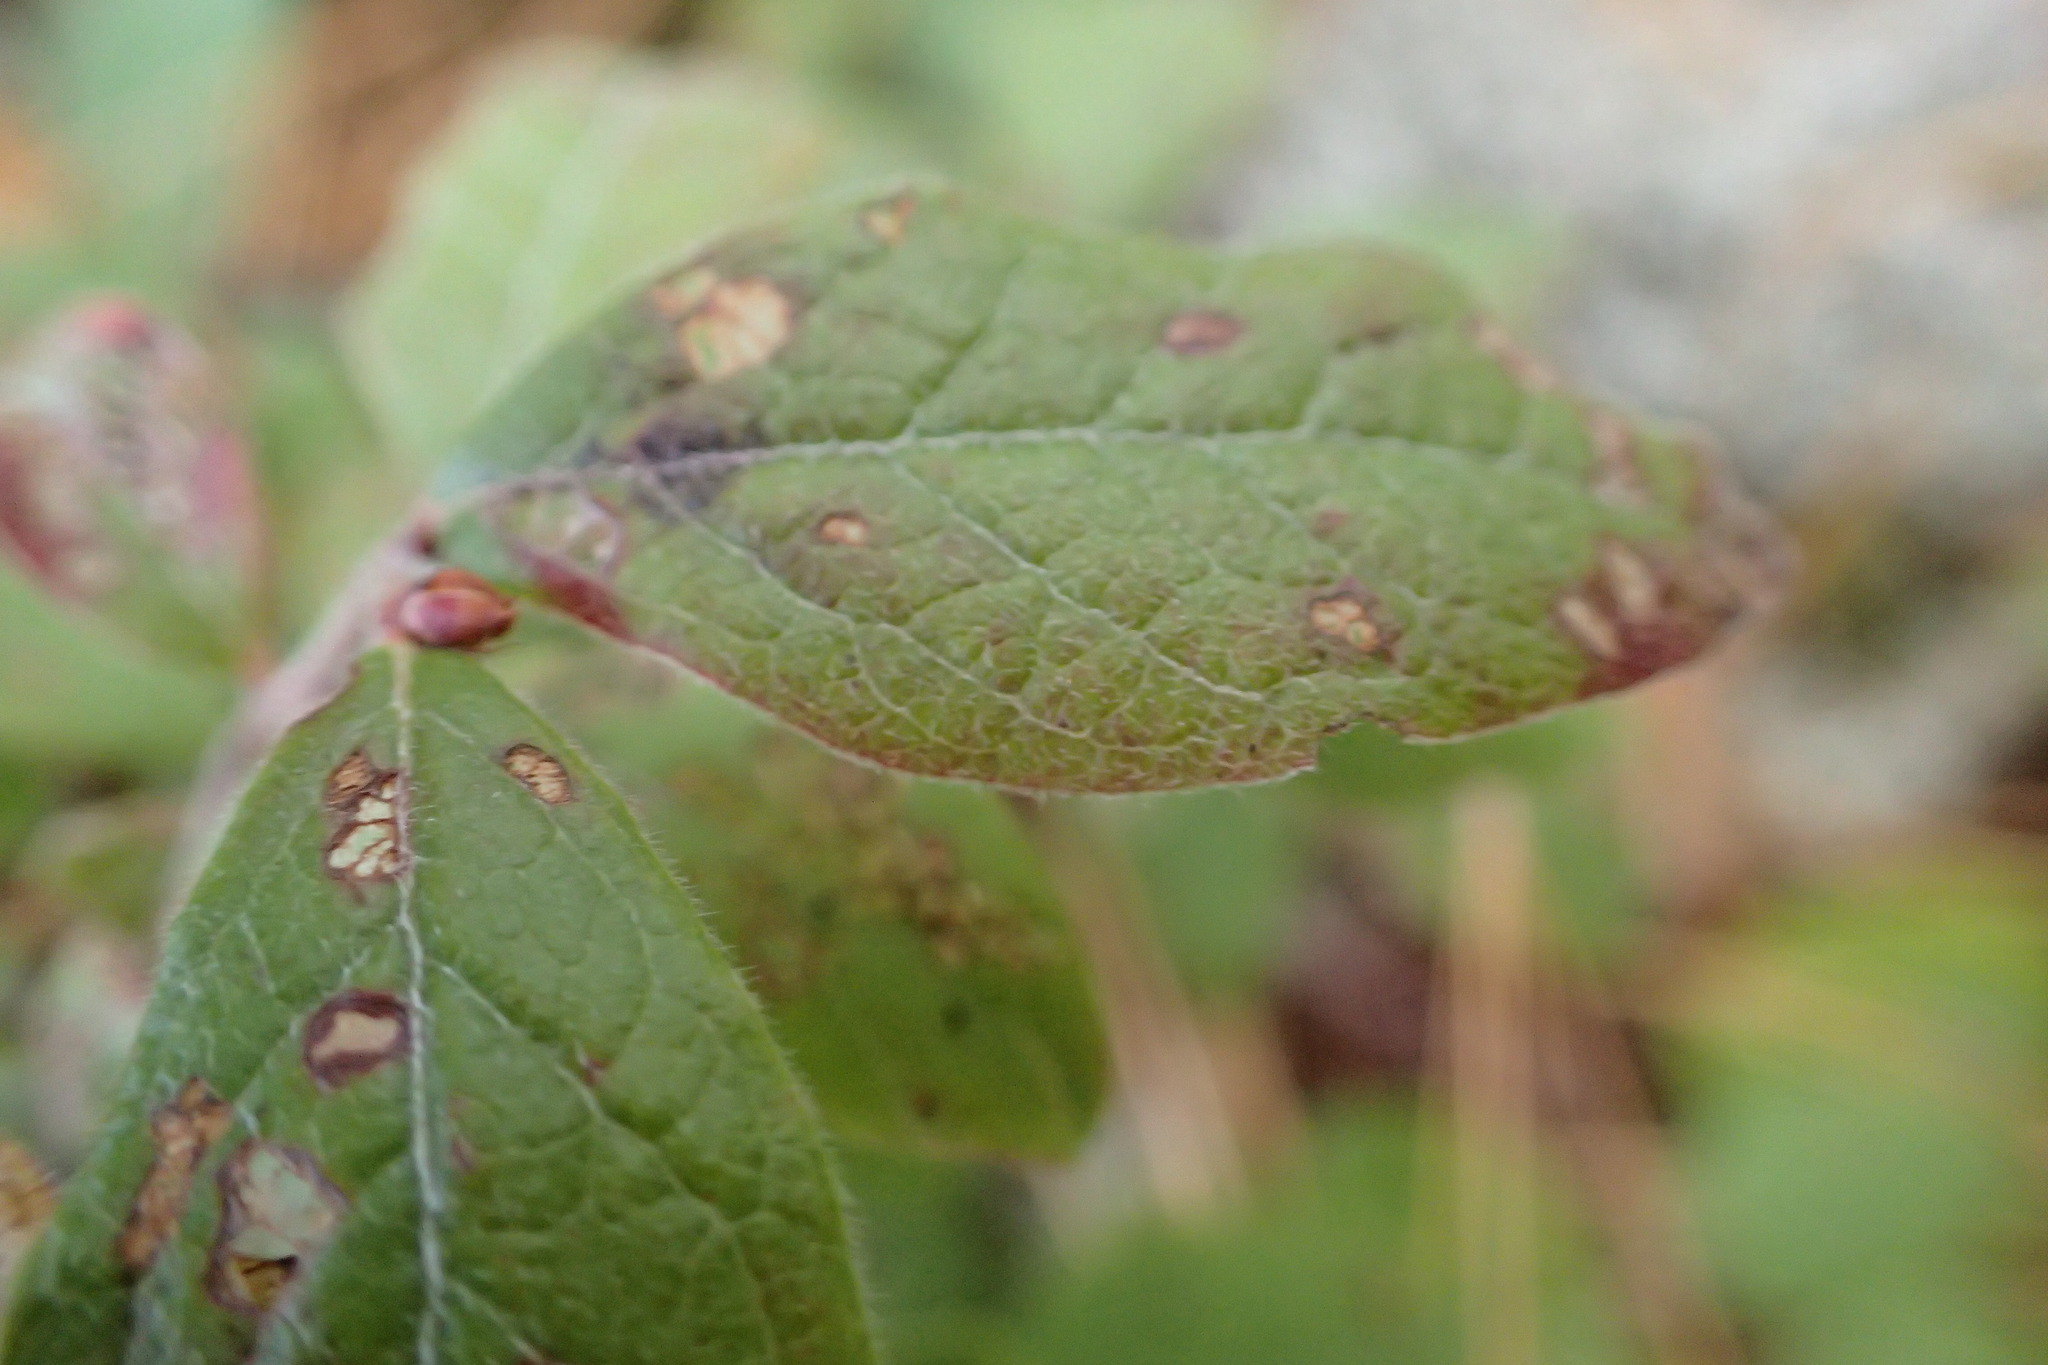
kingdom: Plantae
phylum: Tracheophyta
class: Magnoliopsida
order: Ericales
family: Ericaceae
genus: Vaccinium
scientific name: Vaccinium myrtilloides
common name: Canada blueberry
